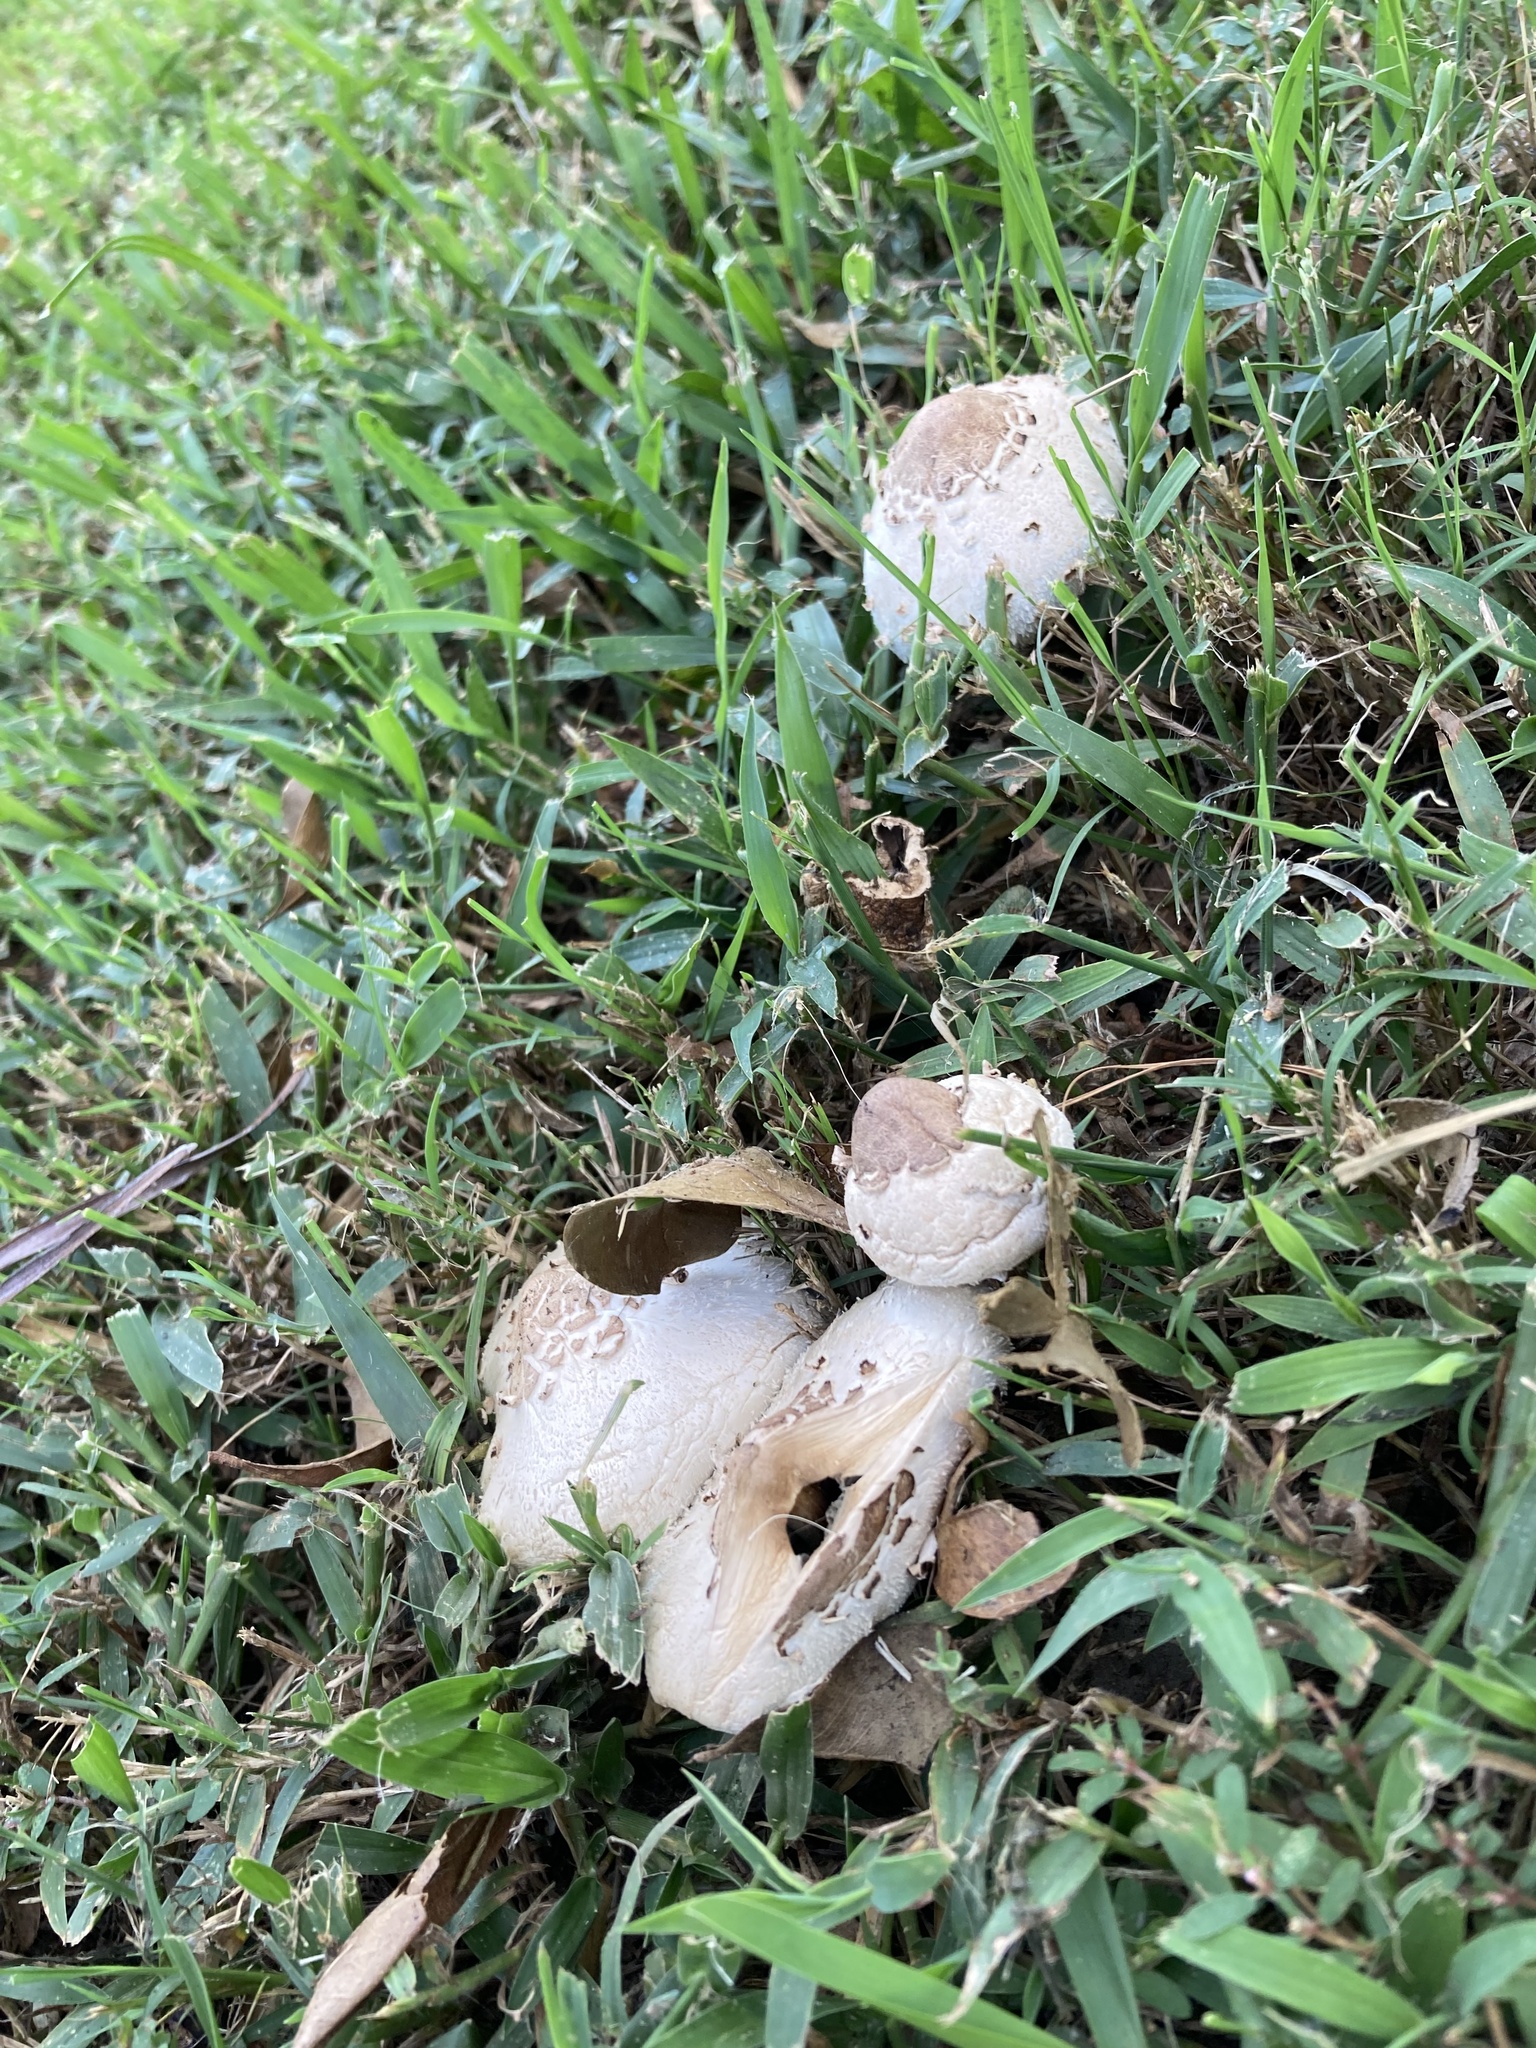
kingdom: Fungi
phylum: Basidiomycota
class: Agaricomycetes
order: Agaricales
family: Agaricaceae
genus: Chlorophyllum
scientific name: Chlorophyllum molybdites
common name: False parasol
